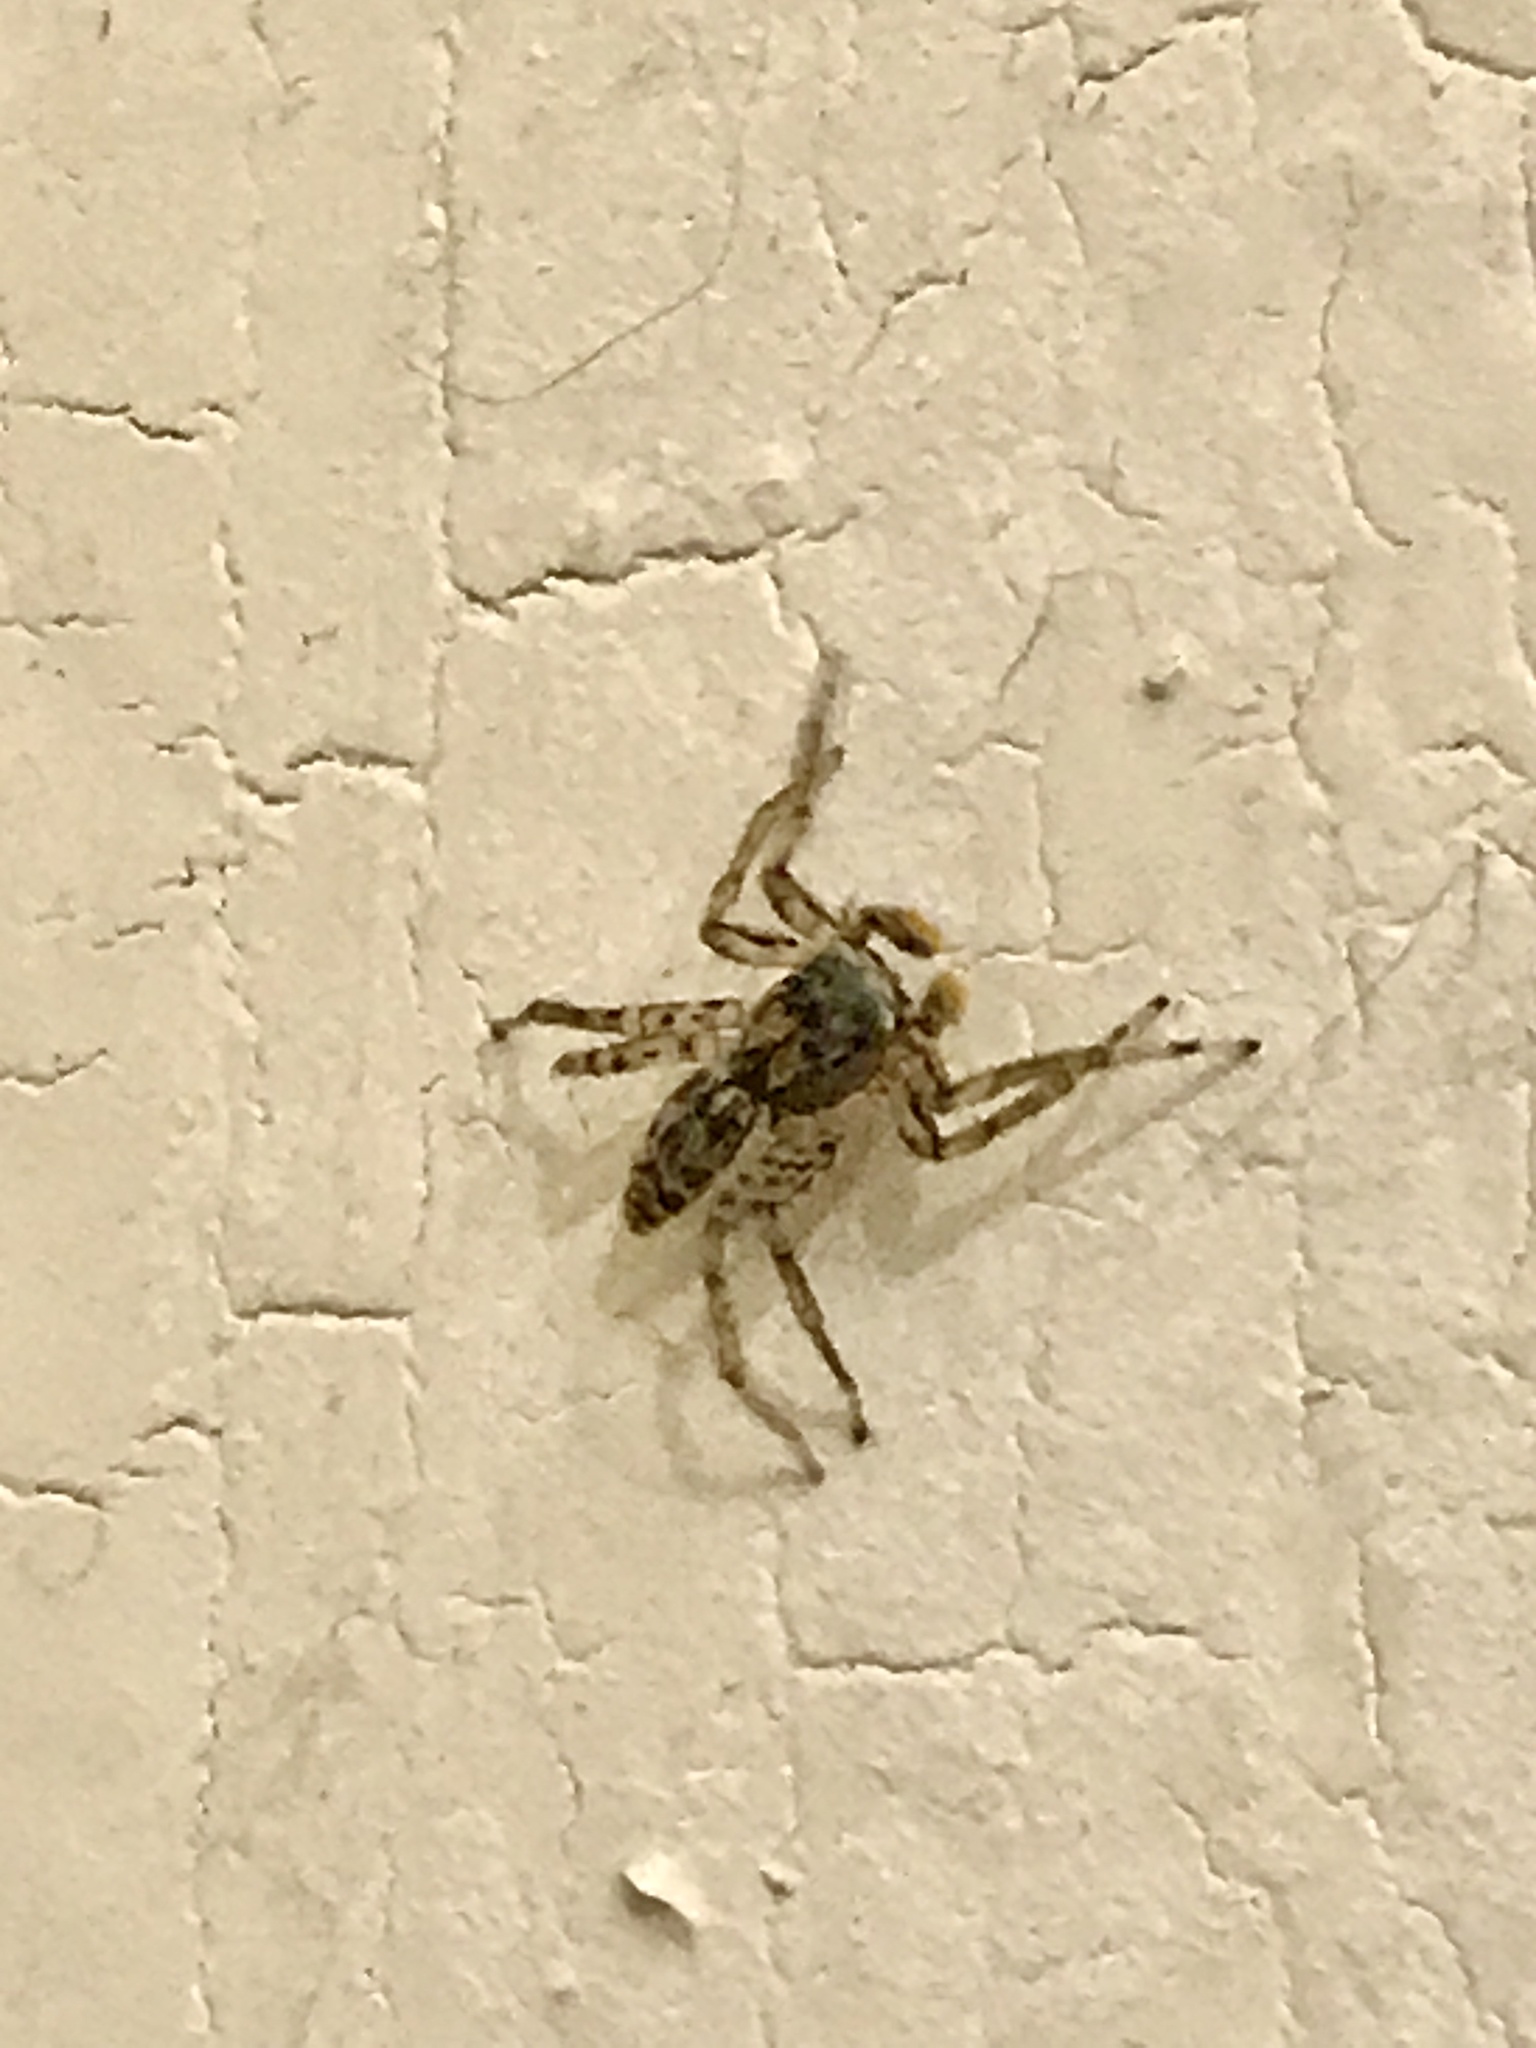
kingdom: Animalia
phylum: Arthropoda
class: Arachnida
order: Araneae
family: Salticidae
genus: Maevia
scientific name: Maevia inclemens
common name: Dimorphic jumper
